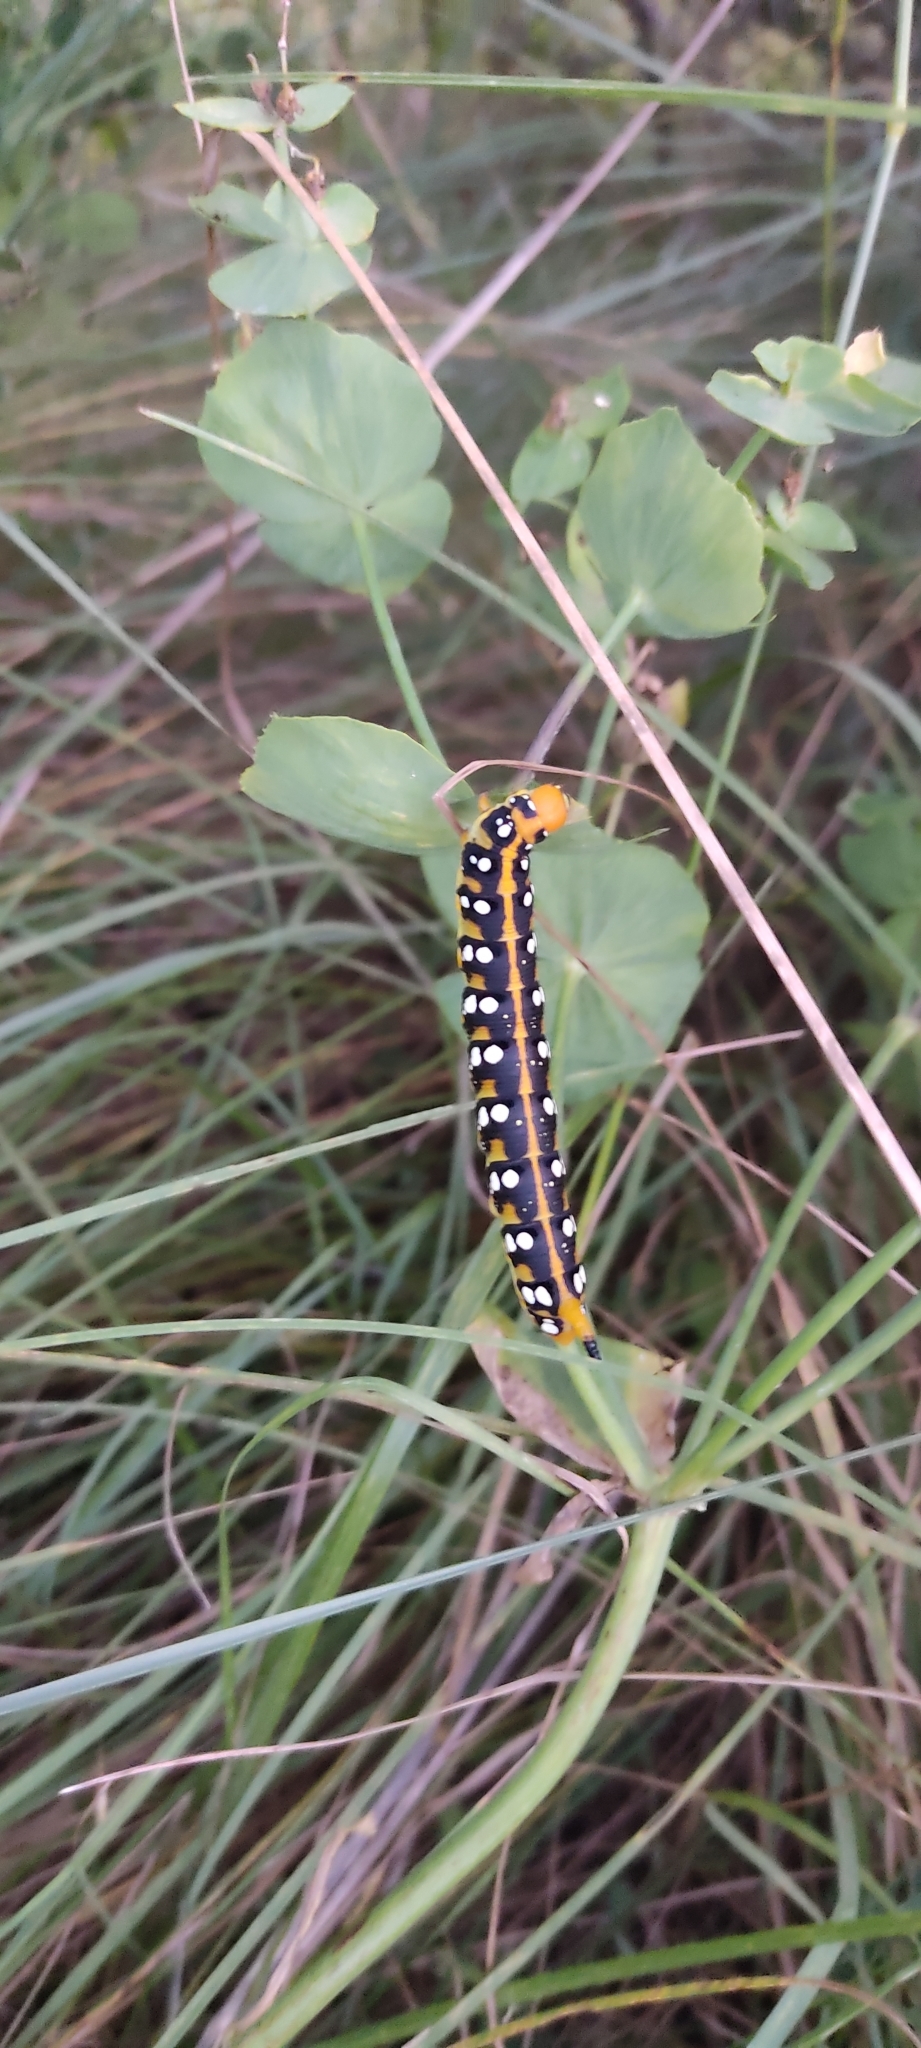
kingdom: Animalia
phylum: Arthropoda
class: Insecta
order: Lepidoptera
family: Sphingidae
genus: Hyles
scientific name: Hyles euphorbiae
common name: Spurge hawk-moth
